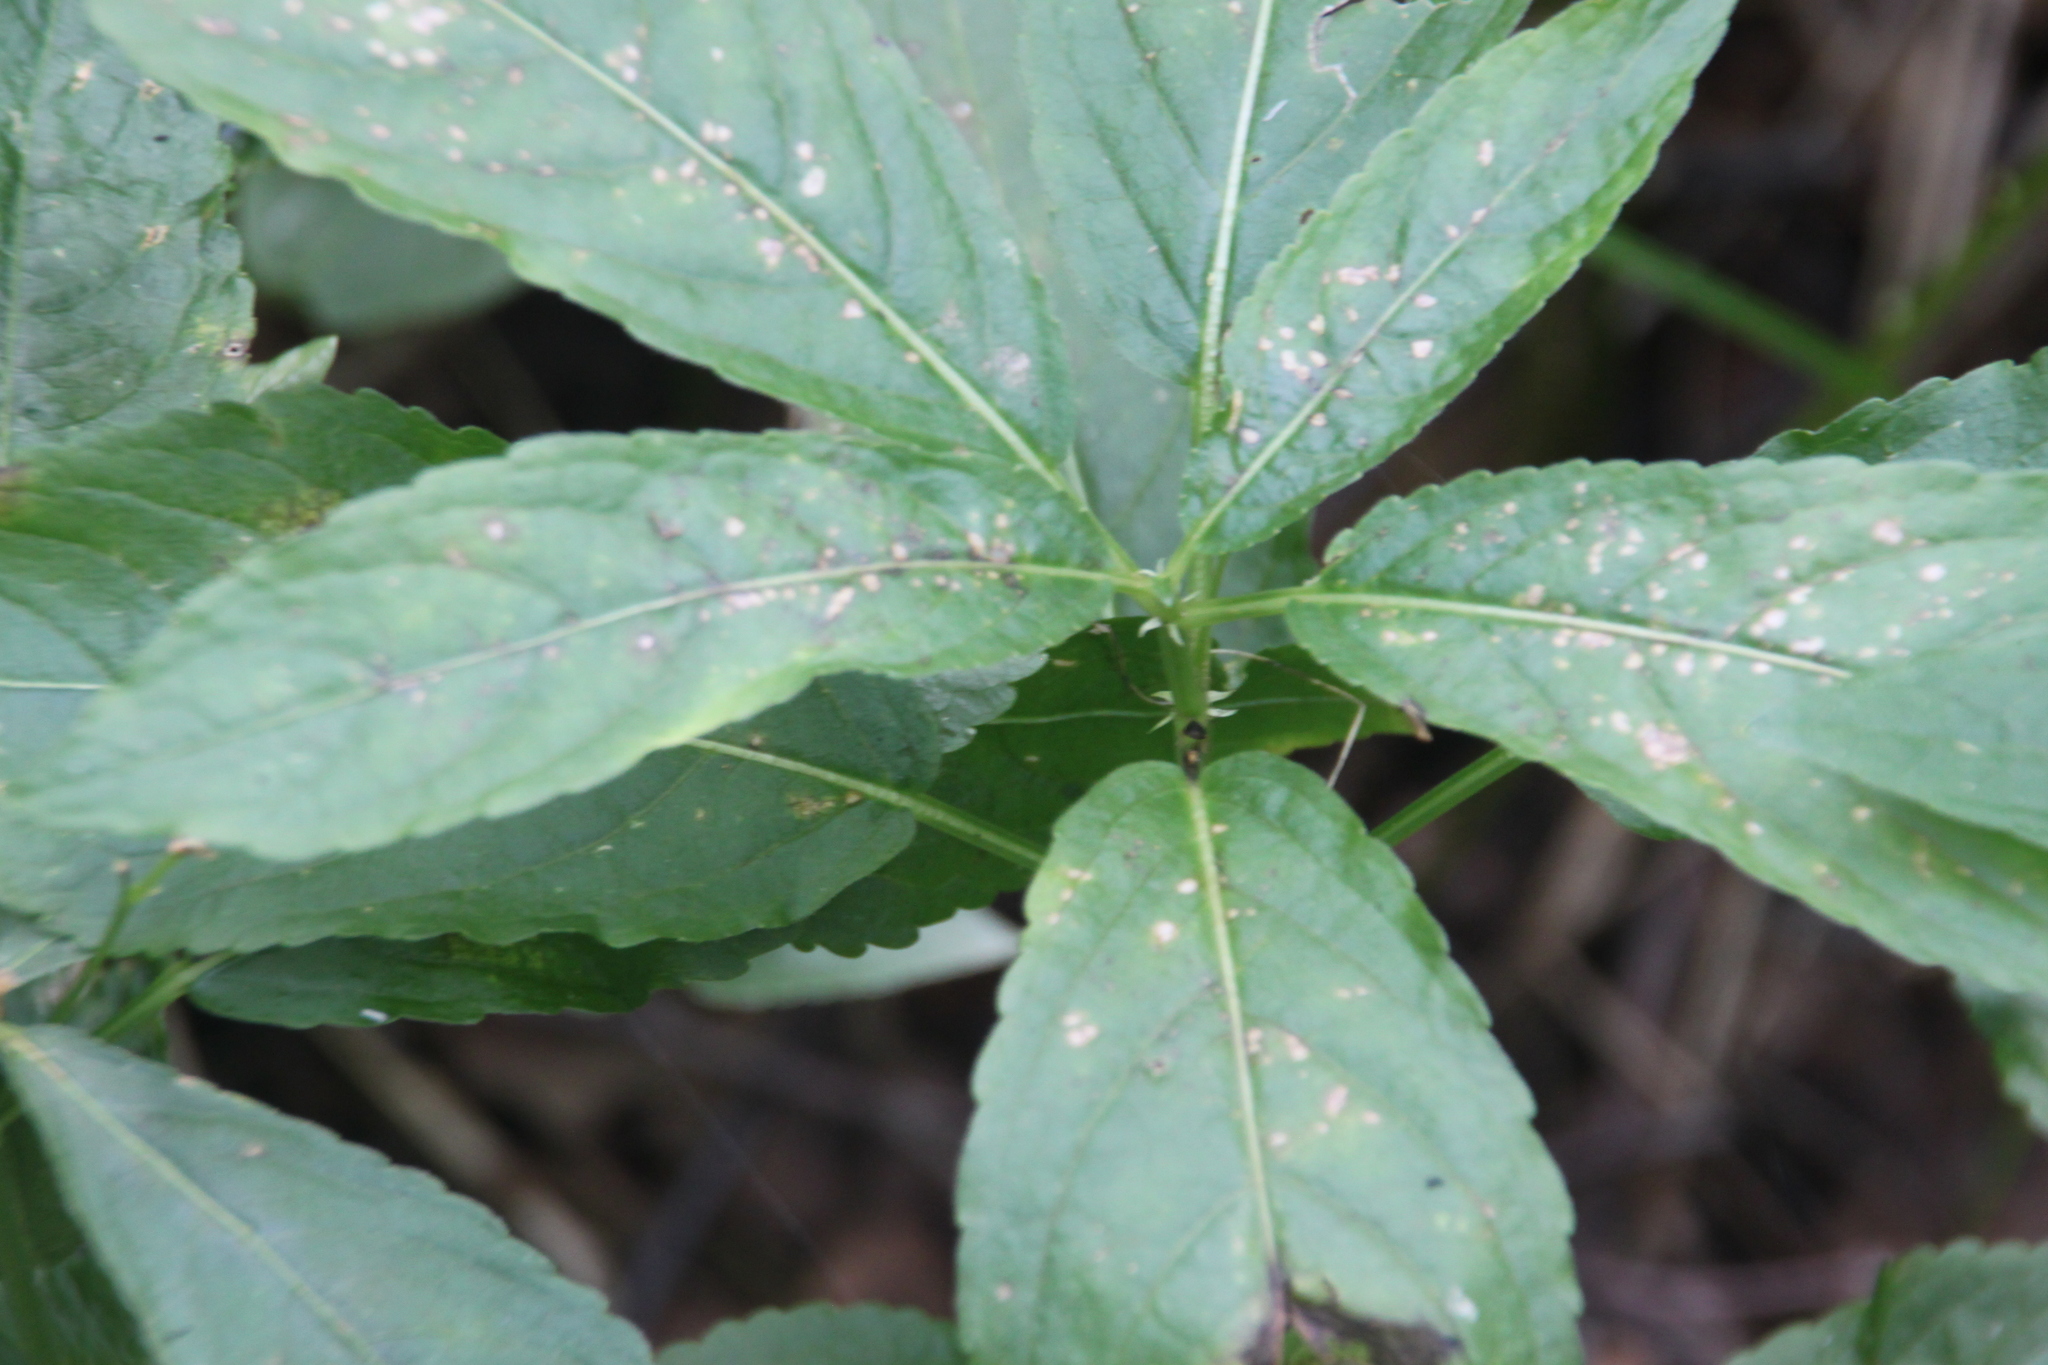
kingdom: Plantae
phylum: Tracheophyta
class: Magnoliopsida
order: Malpighiales
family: Euphorbiaceae
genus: Mercurialis
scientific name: Mercurialis perennis
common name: Dog mercury
